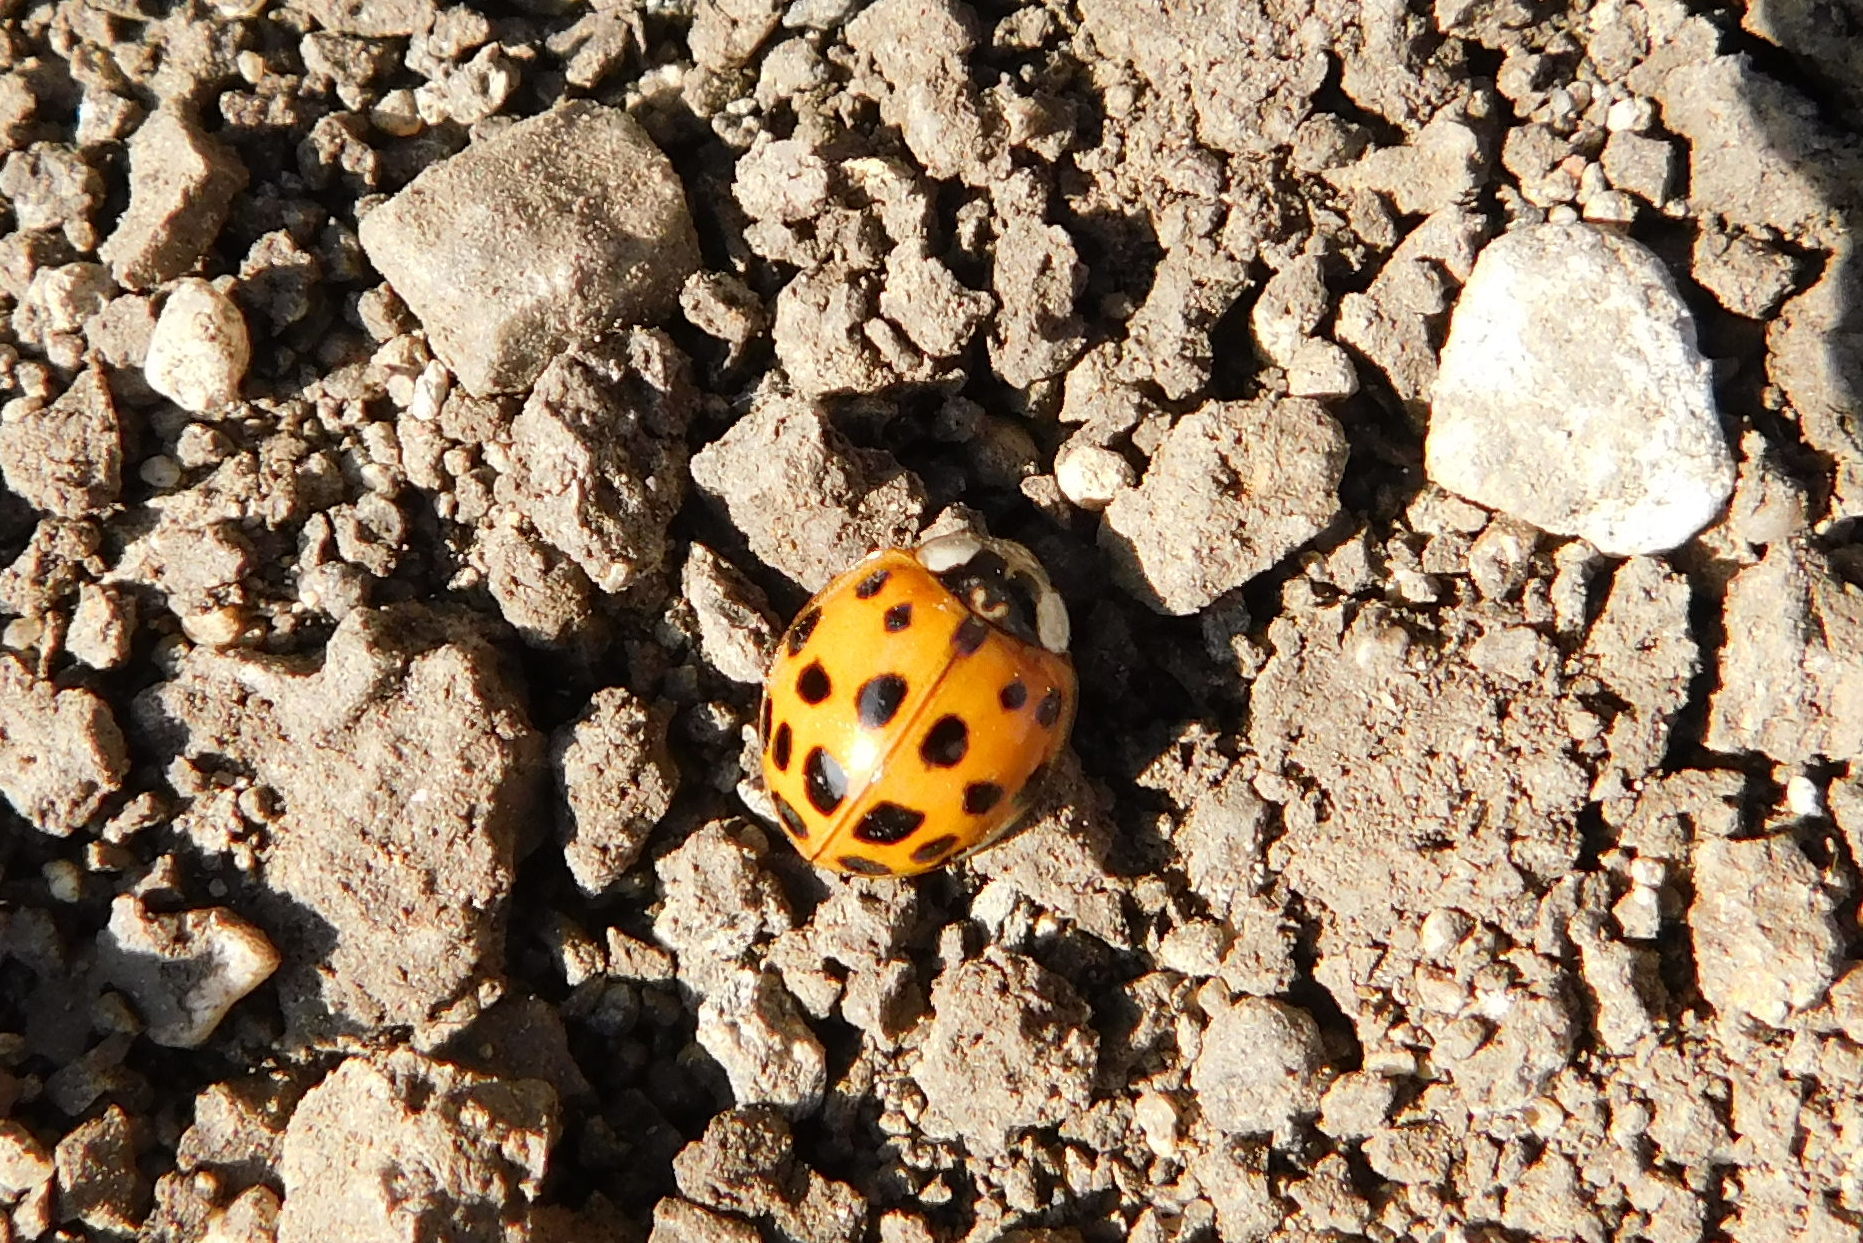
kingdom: Animalia
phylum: Arthropoda
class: Insecta
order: Coleoptera
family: Coccinellidae
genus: Harmonia
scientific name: Harmonia axyridis
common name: Harlequin ladybird
